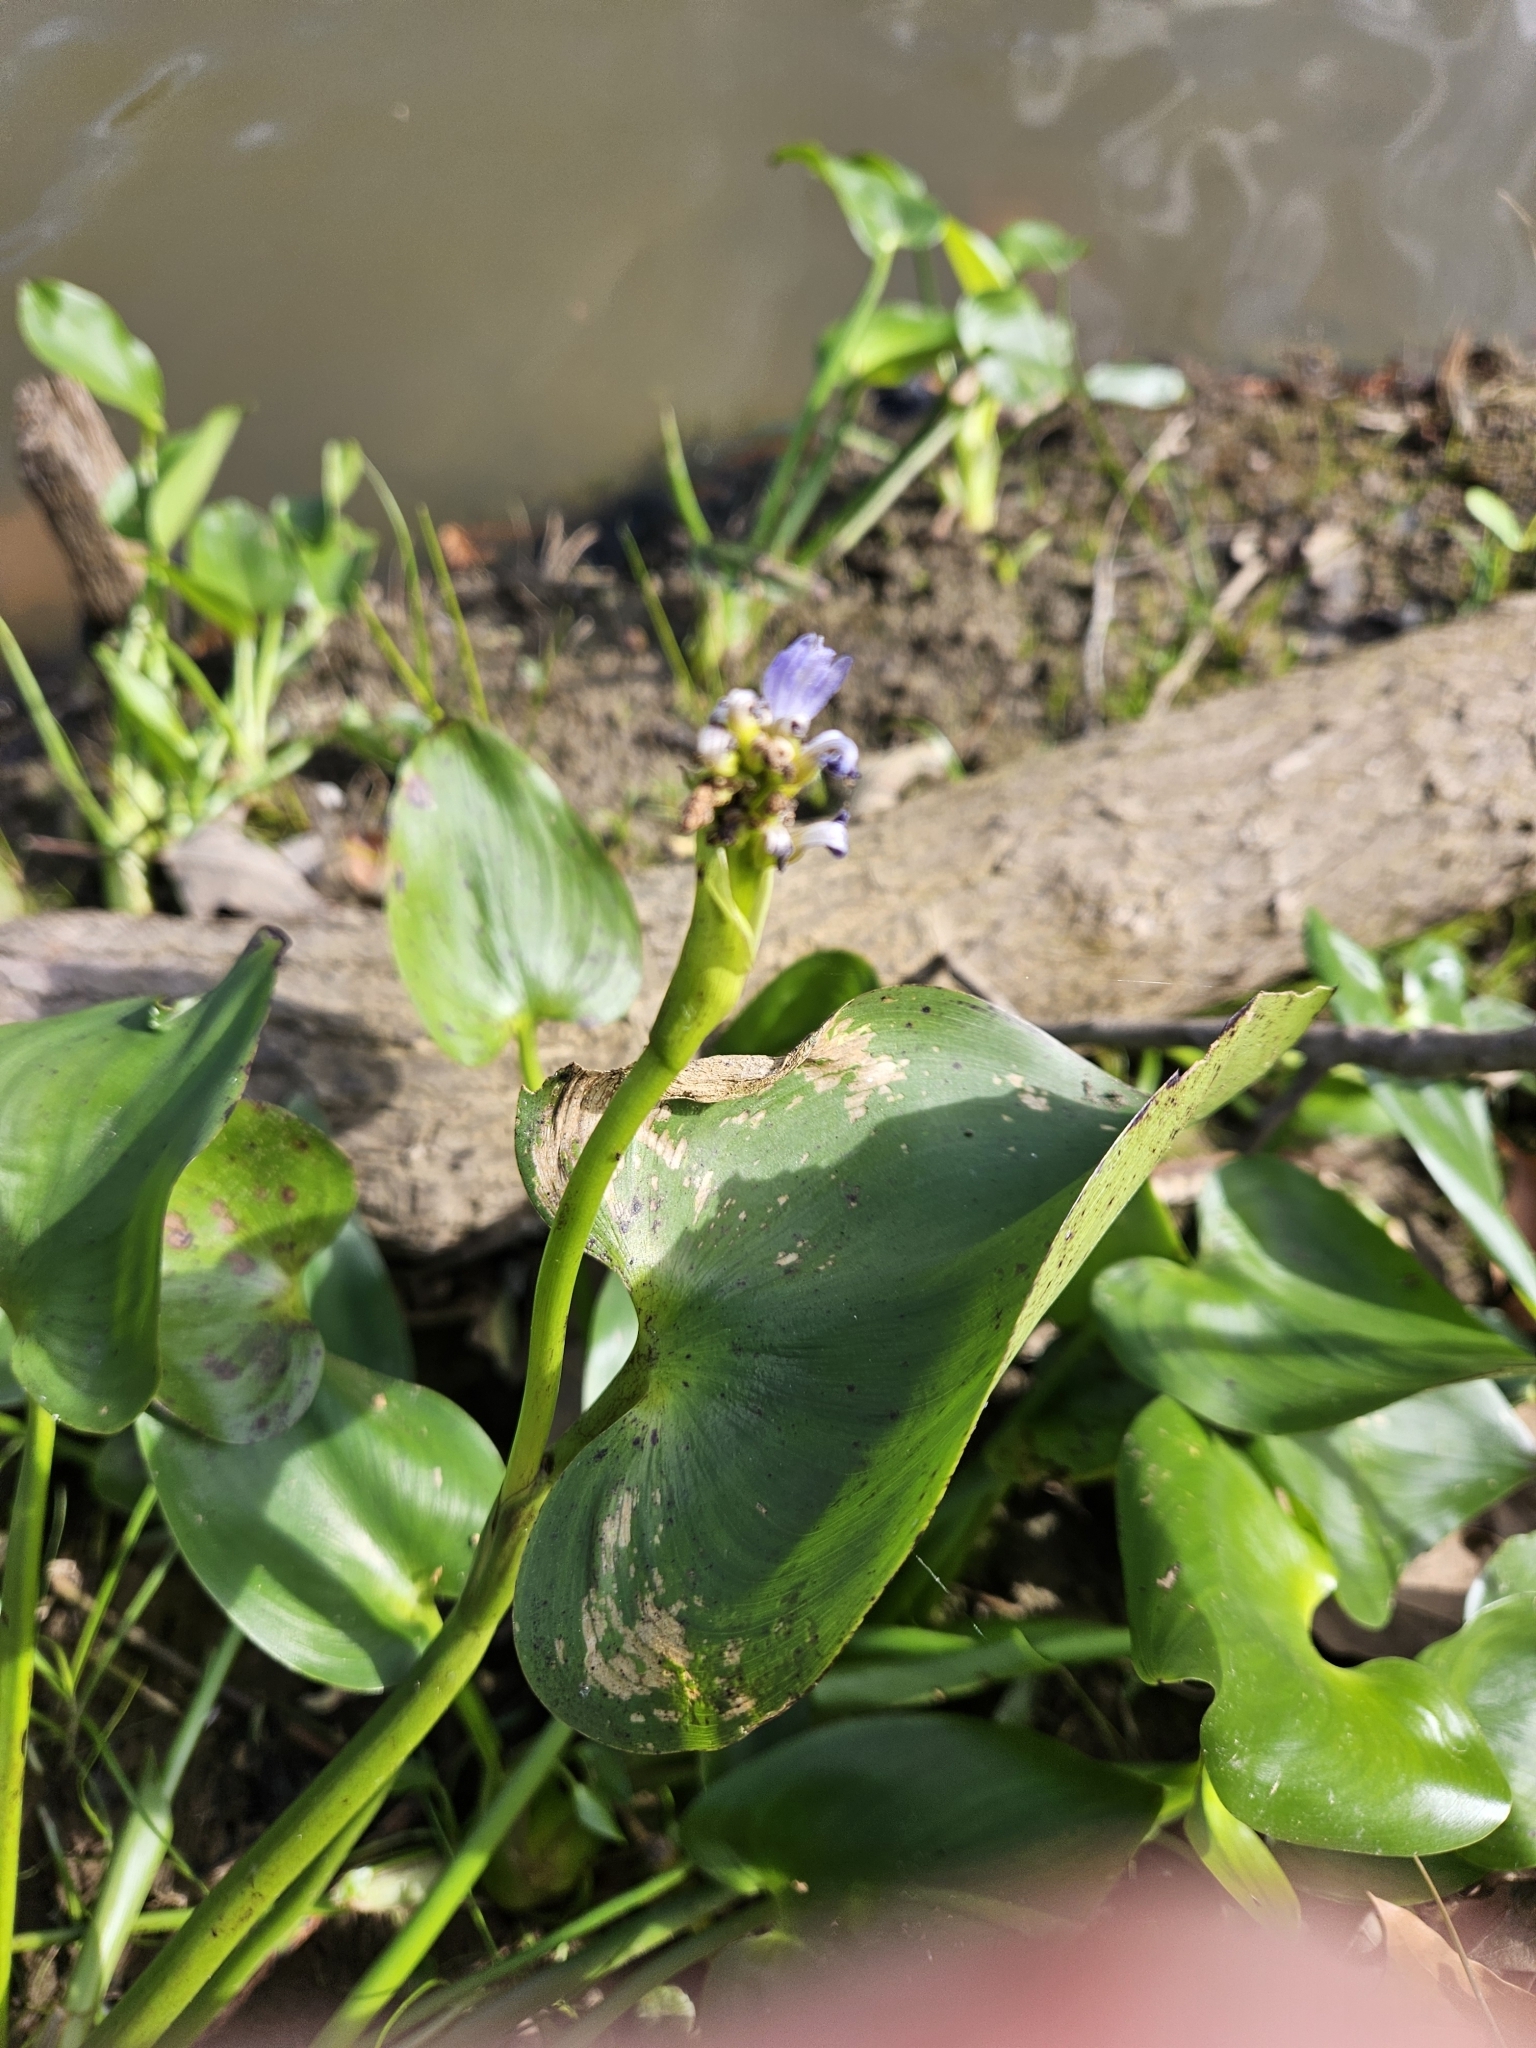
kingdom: Plantae
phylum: Tracheophyta
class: Liliopsida
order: Commelinales
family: Pontederiaceae
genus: Pontederia
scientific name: Pontederia cordata
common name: Pickerelweed
